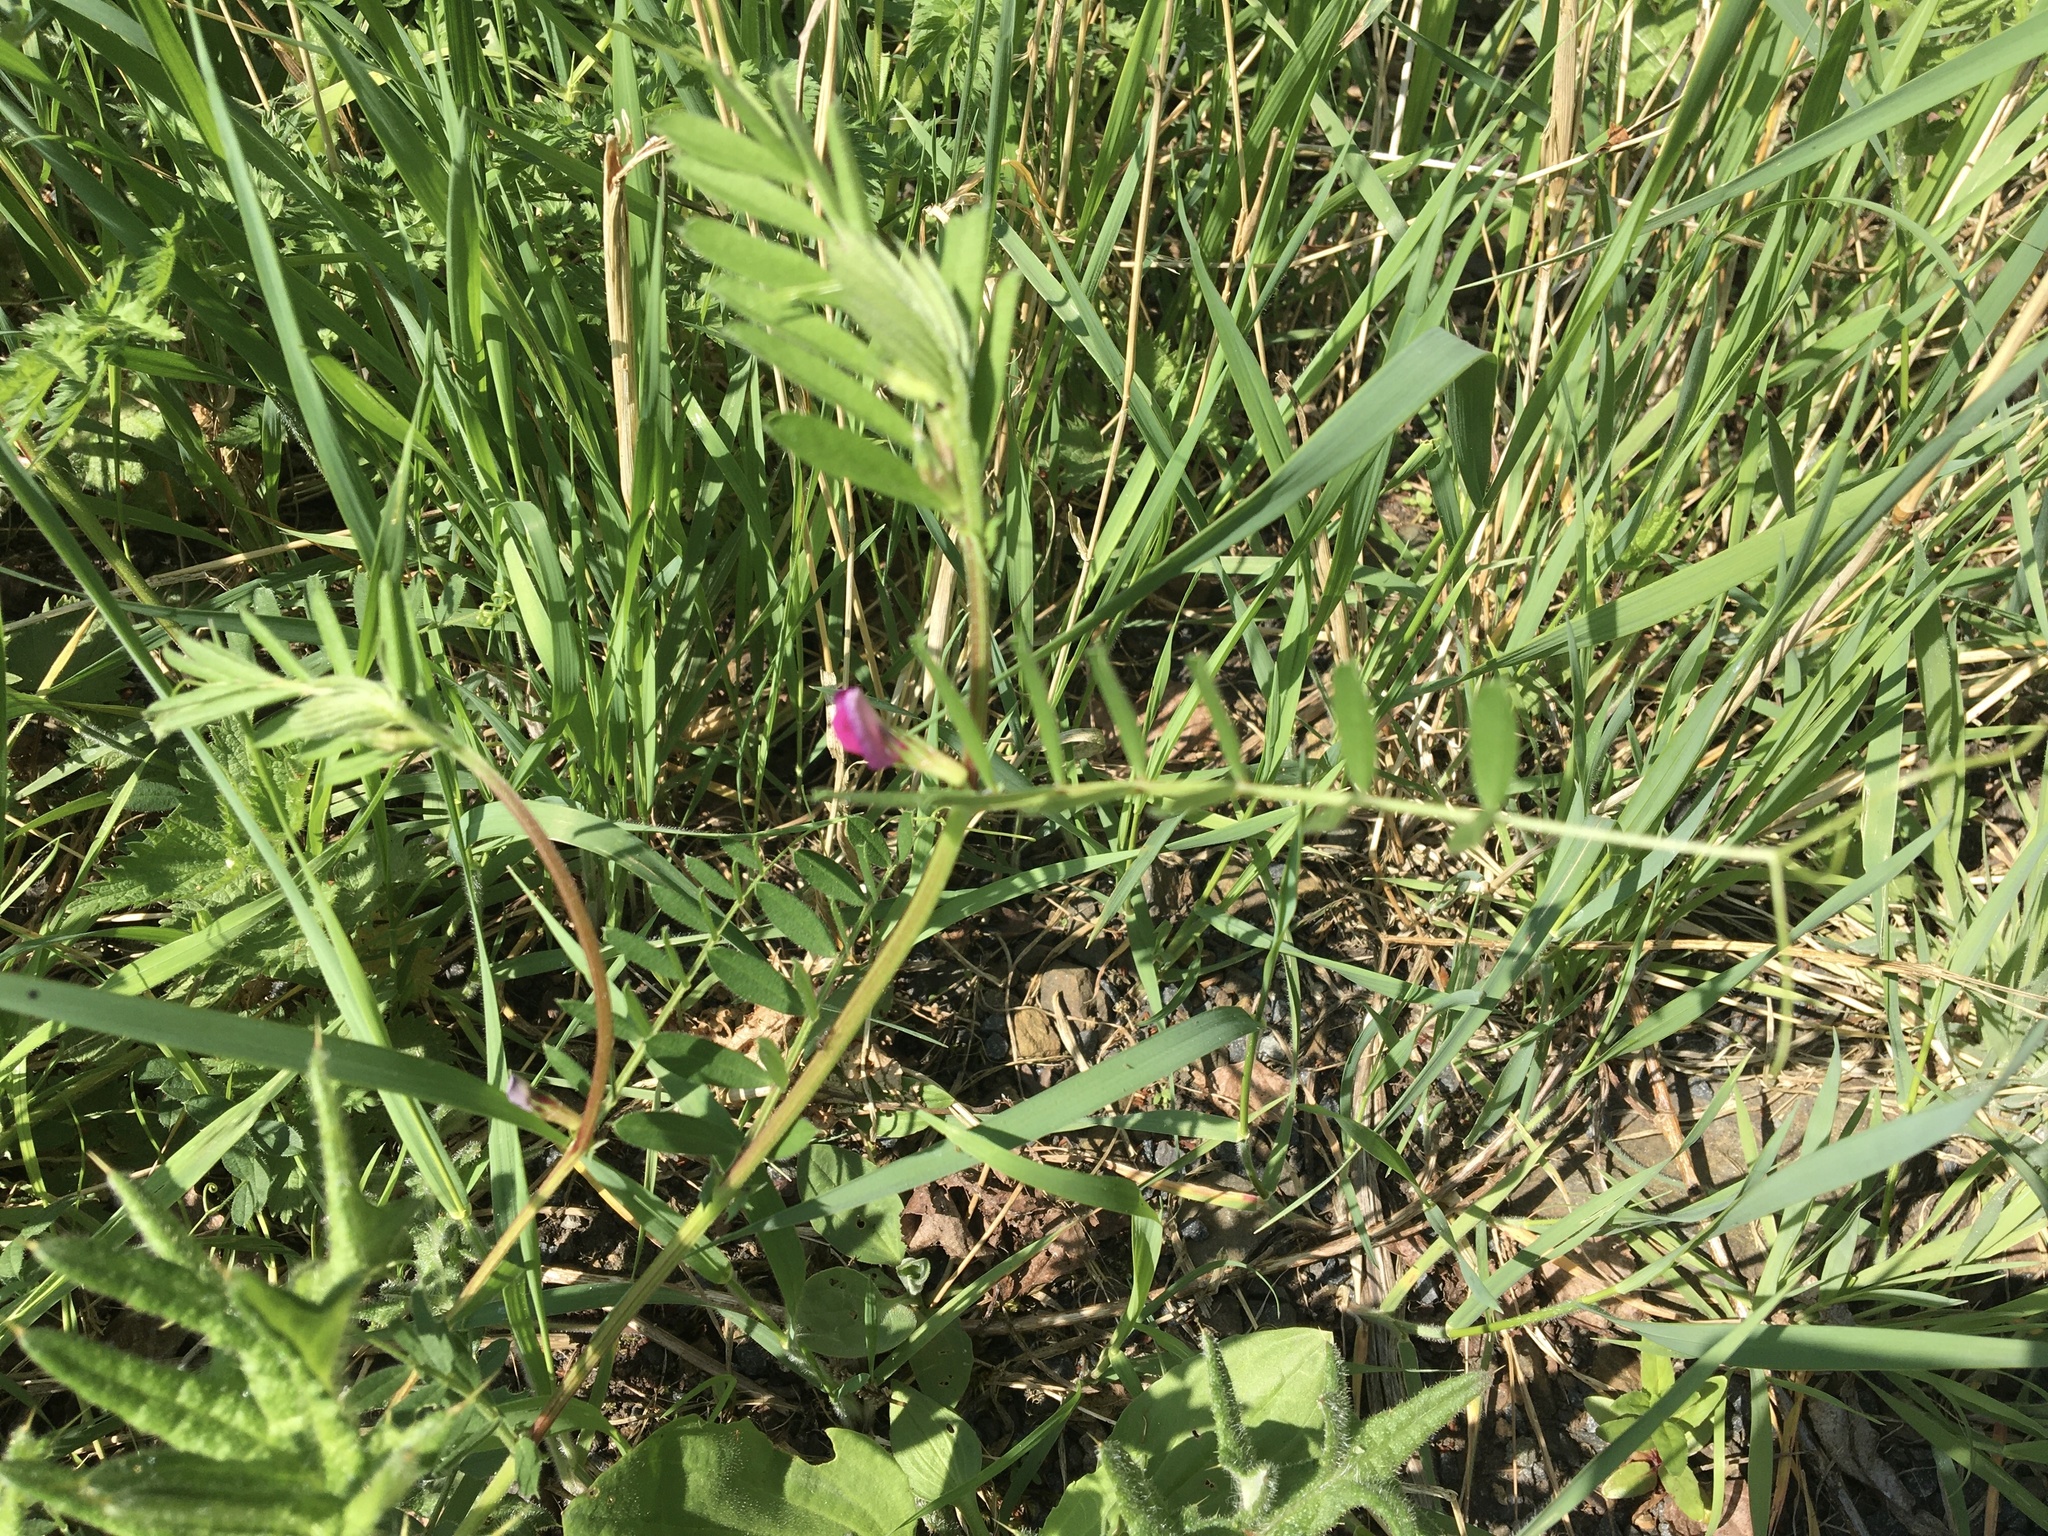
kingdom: Plantae
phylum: Tracheophyta
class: Magnoliopsida
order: Fabales
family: Fabaceae
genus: Vicia
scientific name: Vicia sativa
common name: Garden vetch
